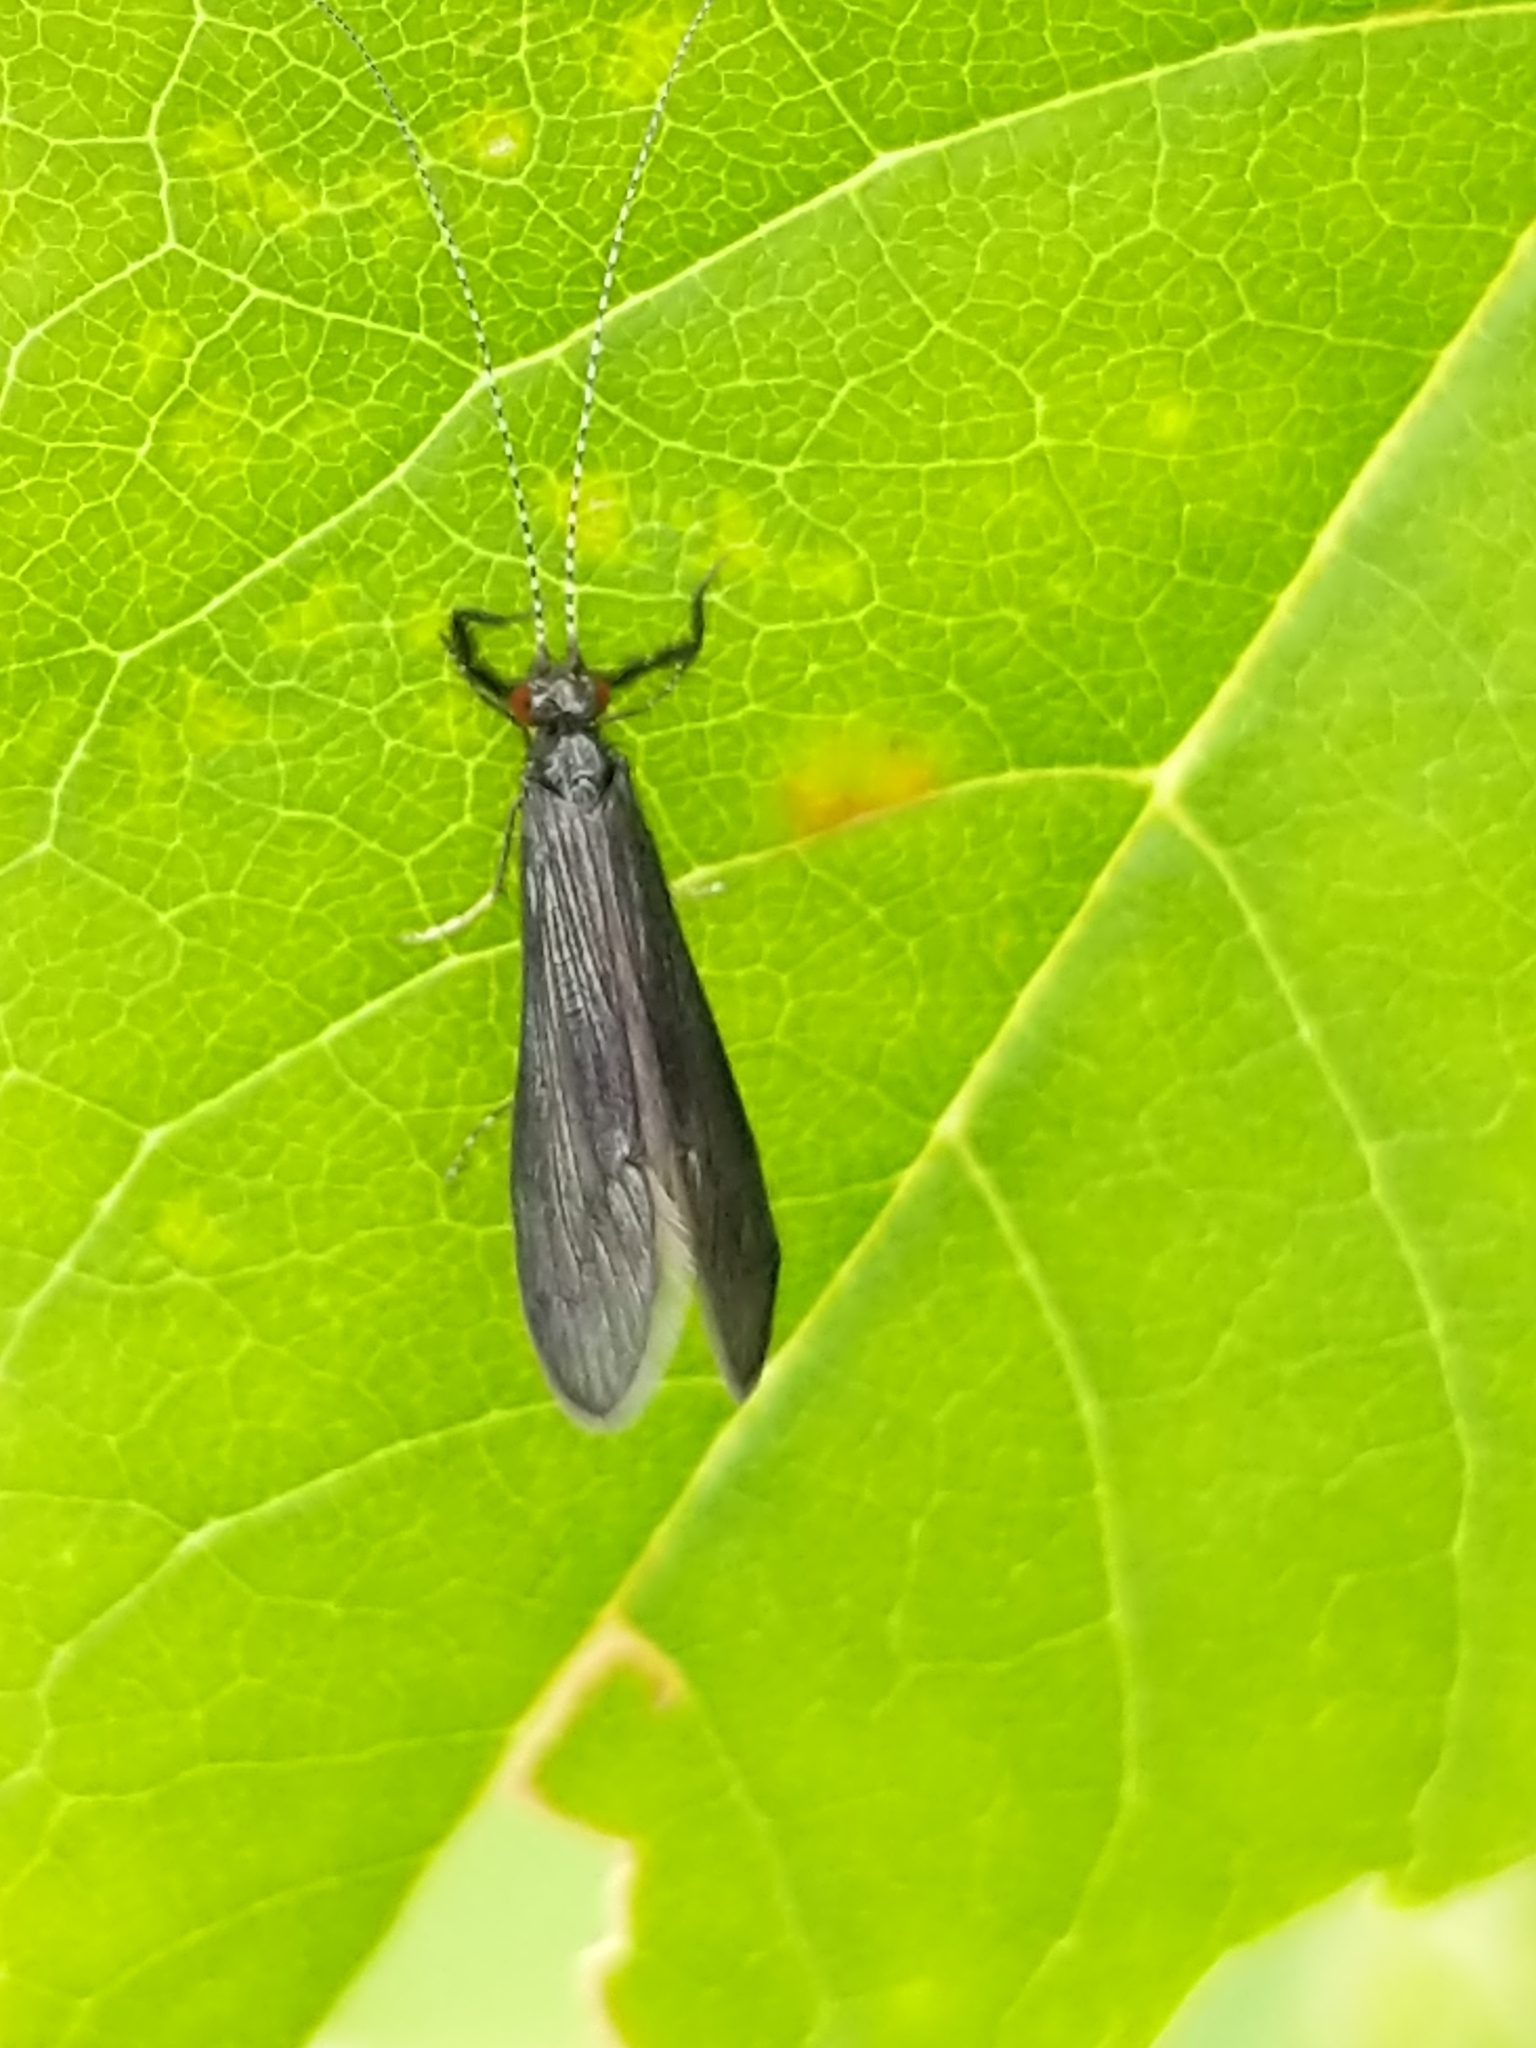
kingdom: Animalia
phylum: Arthropoda
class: Insecta
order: Trichoptera
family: Leptoceridae
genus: Mystacides
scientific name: Mystacides sepulchralis
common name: Black dancer caddisfly
